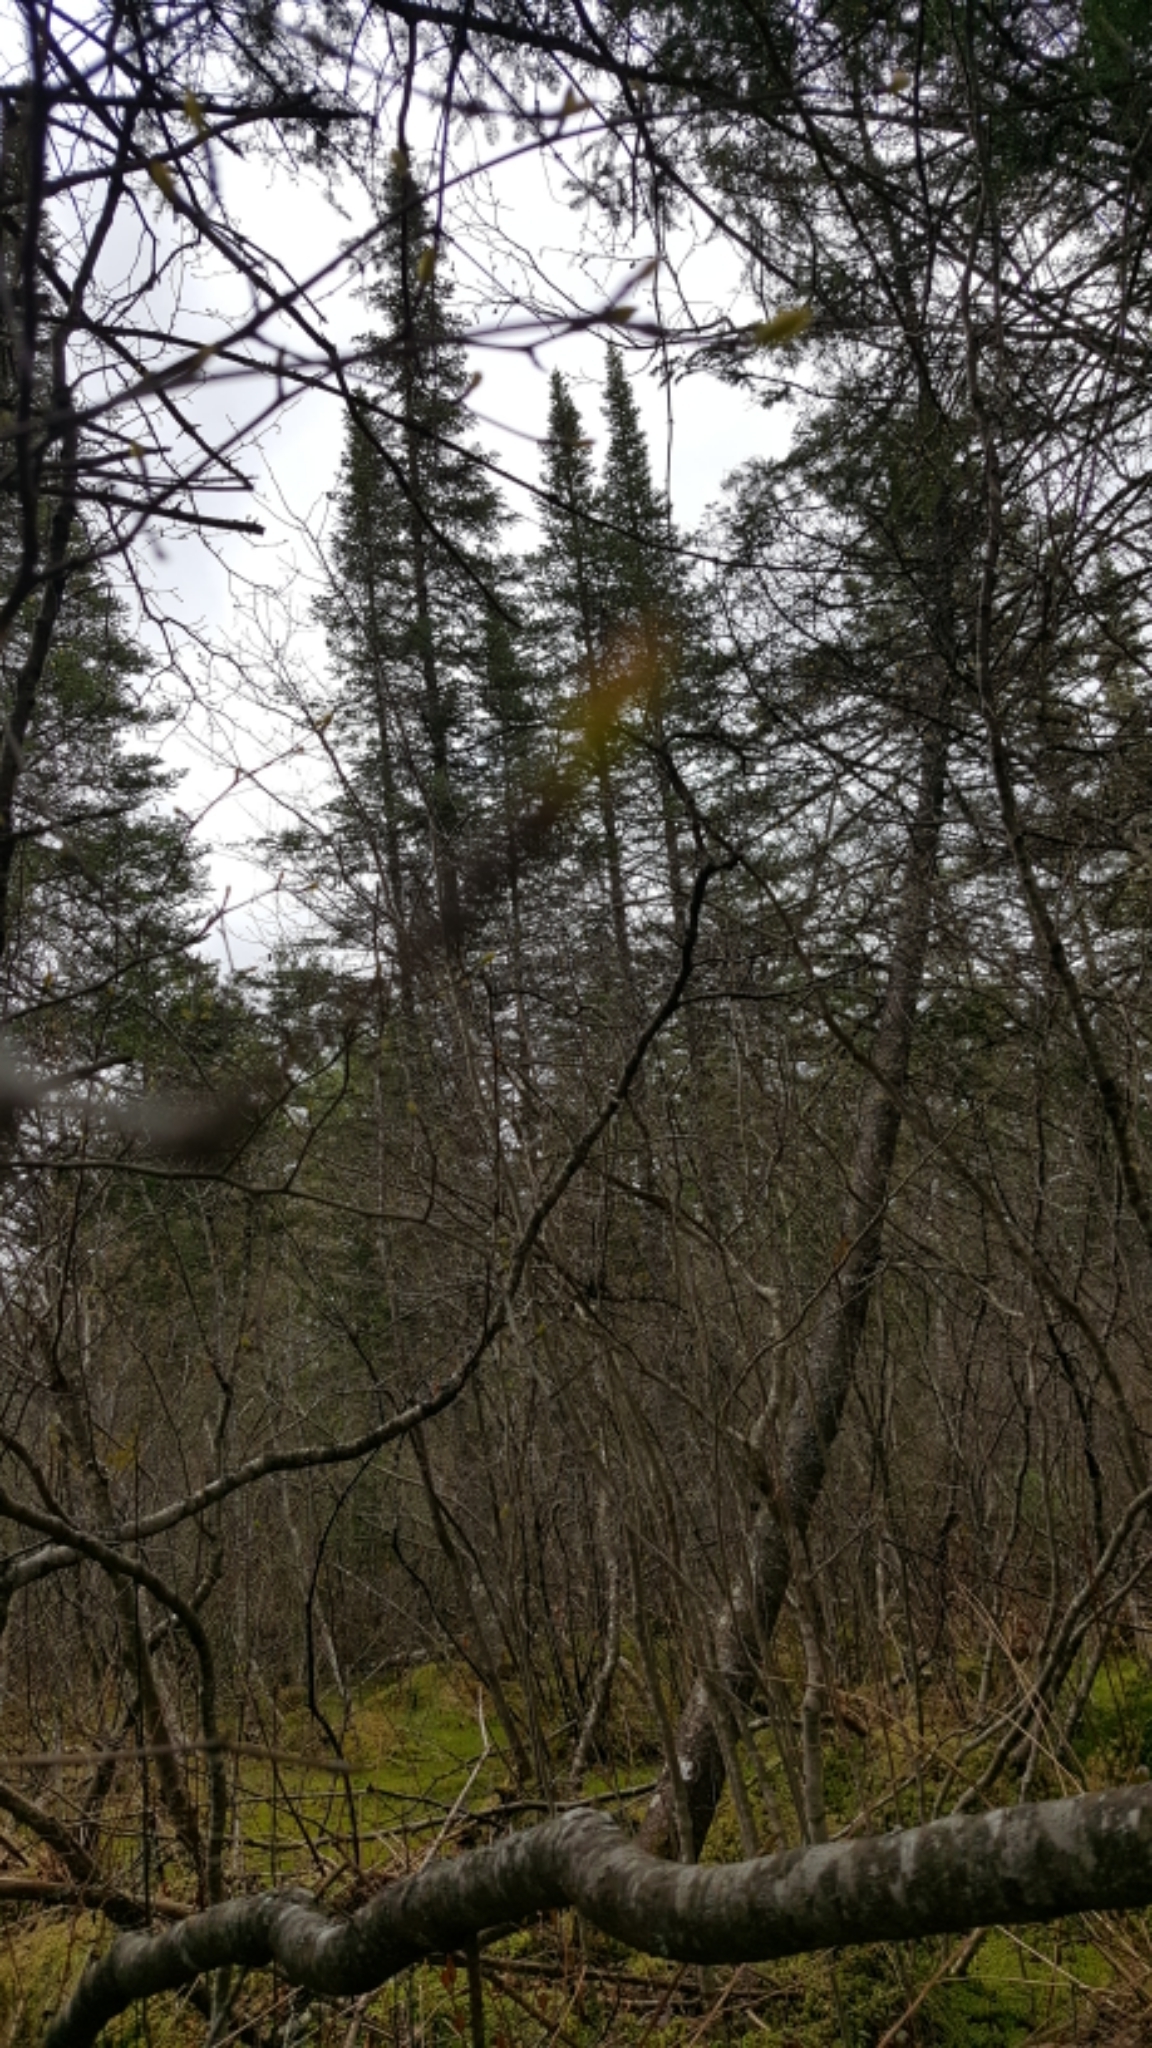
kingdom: Plantae
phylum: Tracheophyta
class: Pinopsida
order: Pinales
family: Pinaceae
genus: Abies
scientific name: Abies balsamea
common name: Balsam fir
